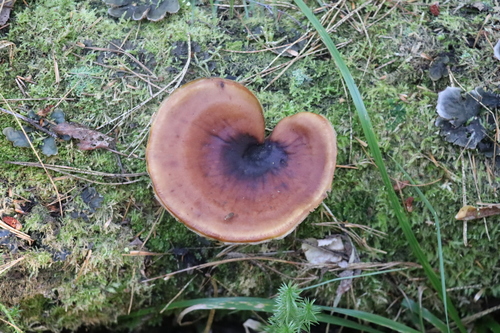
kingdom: Fungi
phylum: Basidiomycota
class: Agaricomycetes
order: Polyporales
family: Polyporaceae
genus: Picipes
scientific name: Picipes badius
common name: Bay polypore
